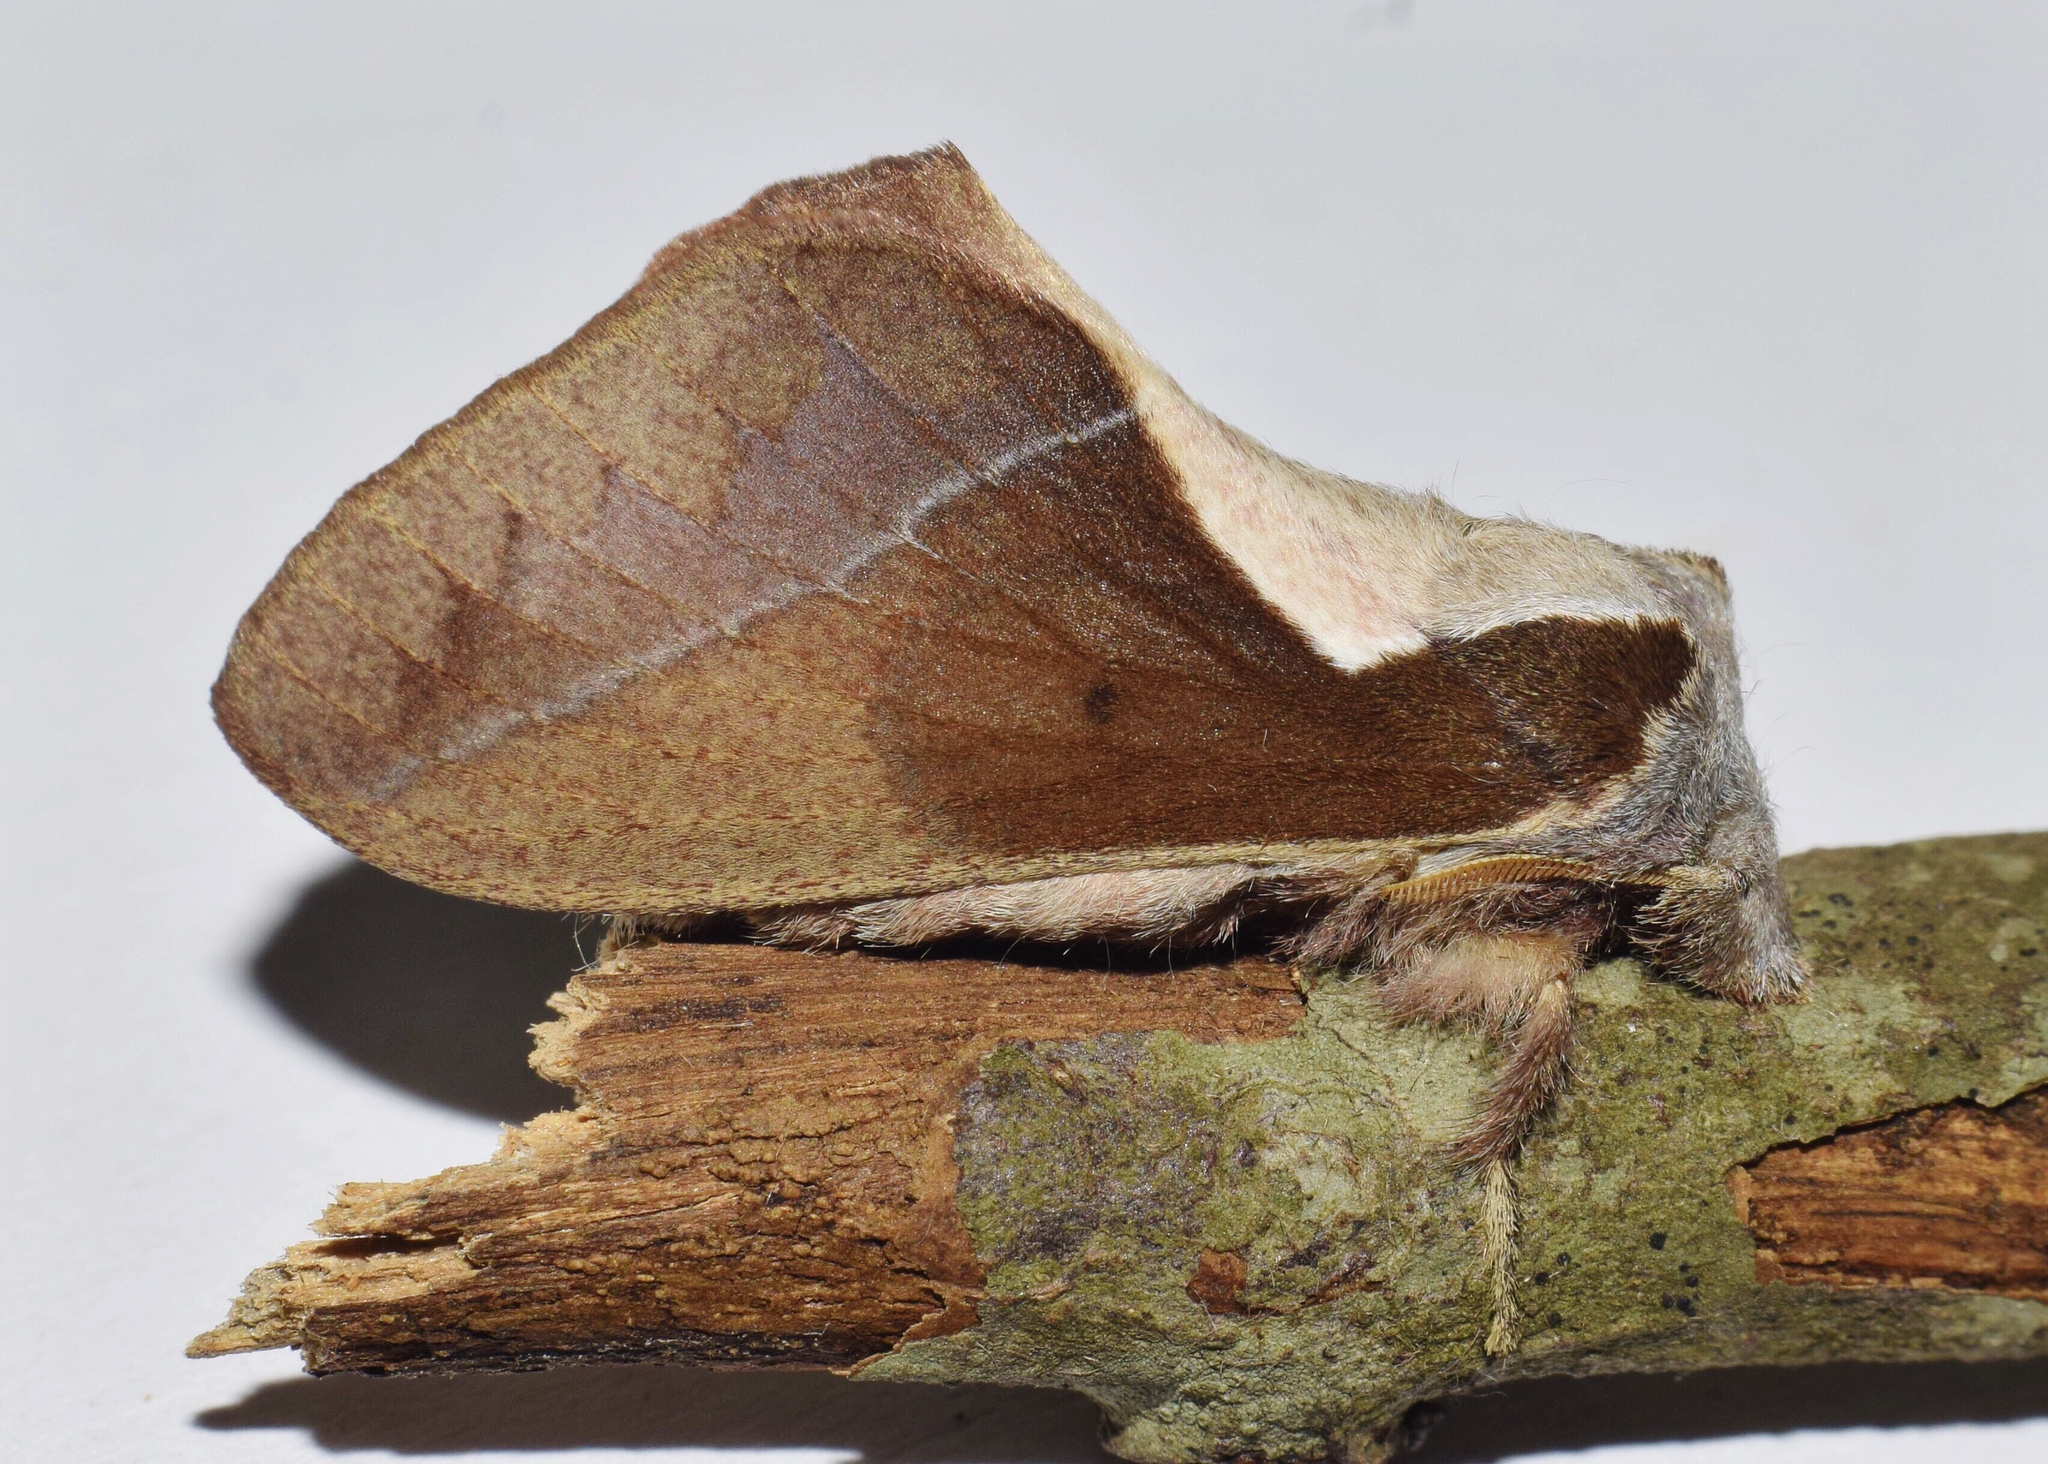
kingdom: Animalia
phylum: Arthropoda
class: Insecta
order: Lepidoptera
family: Lasiocampidae
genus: Stoermeriana
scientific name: Stoermeriana scapulosa
